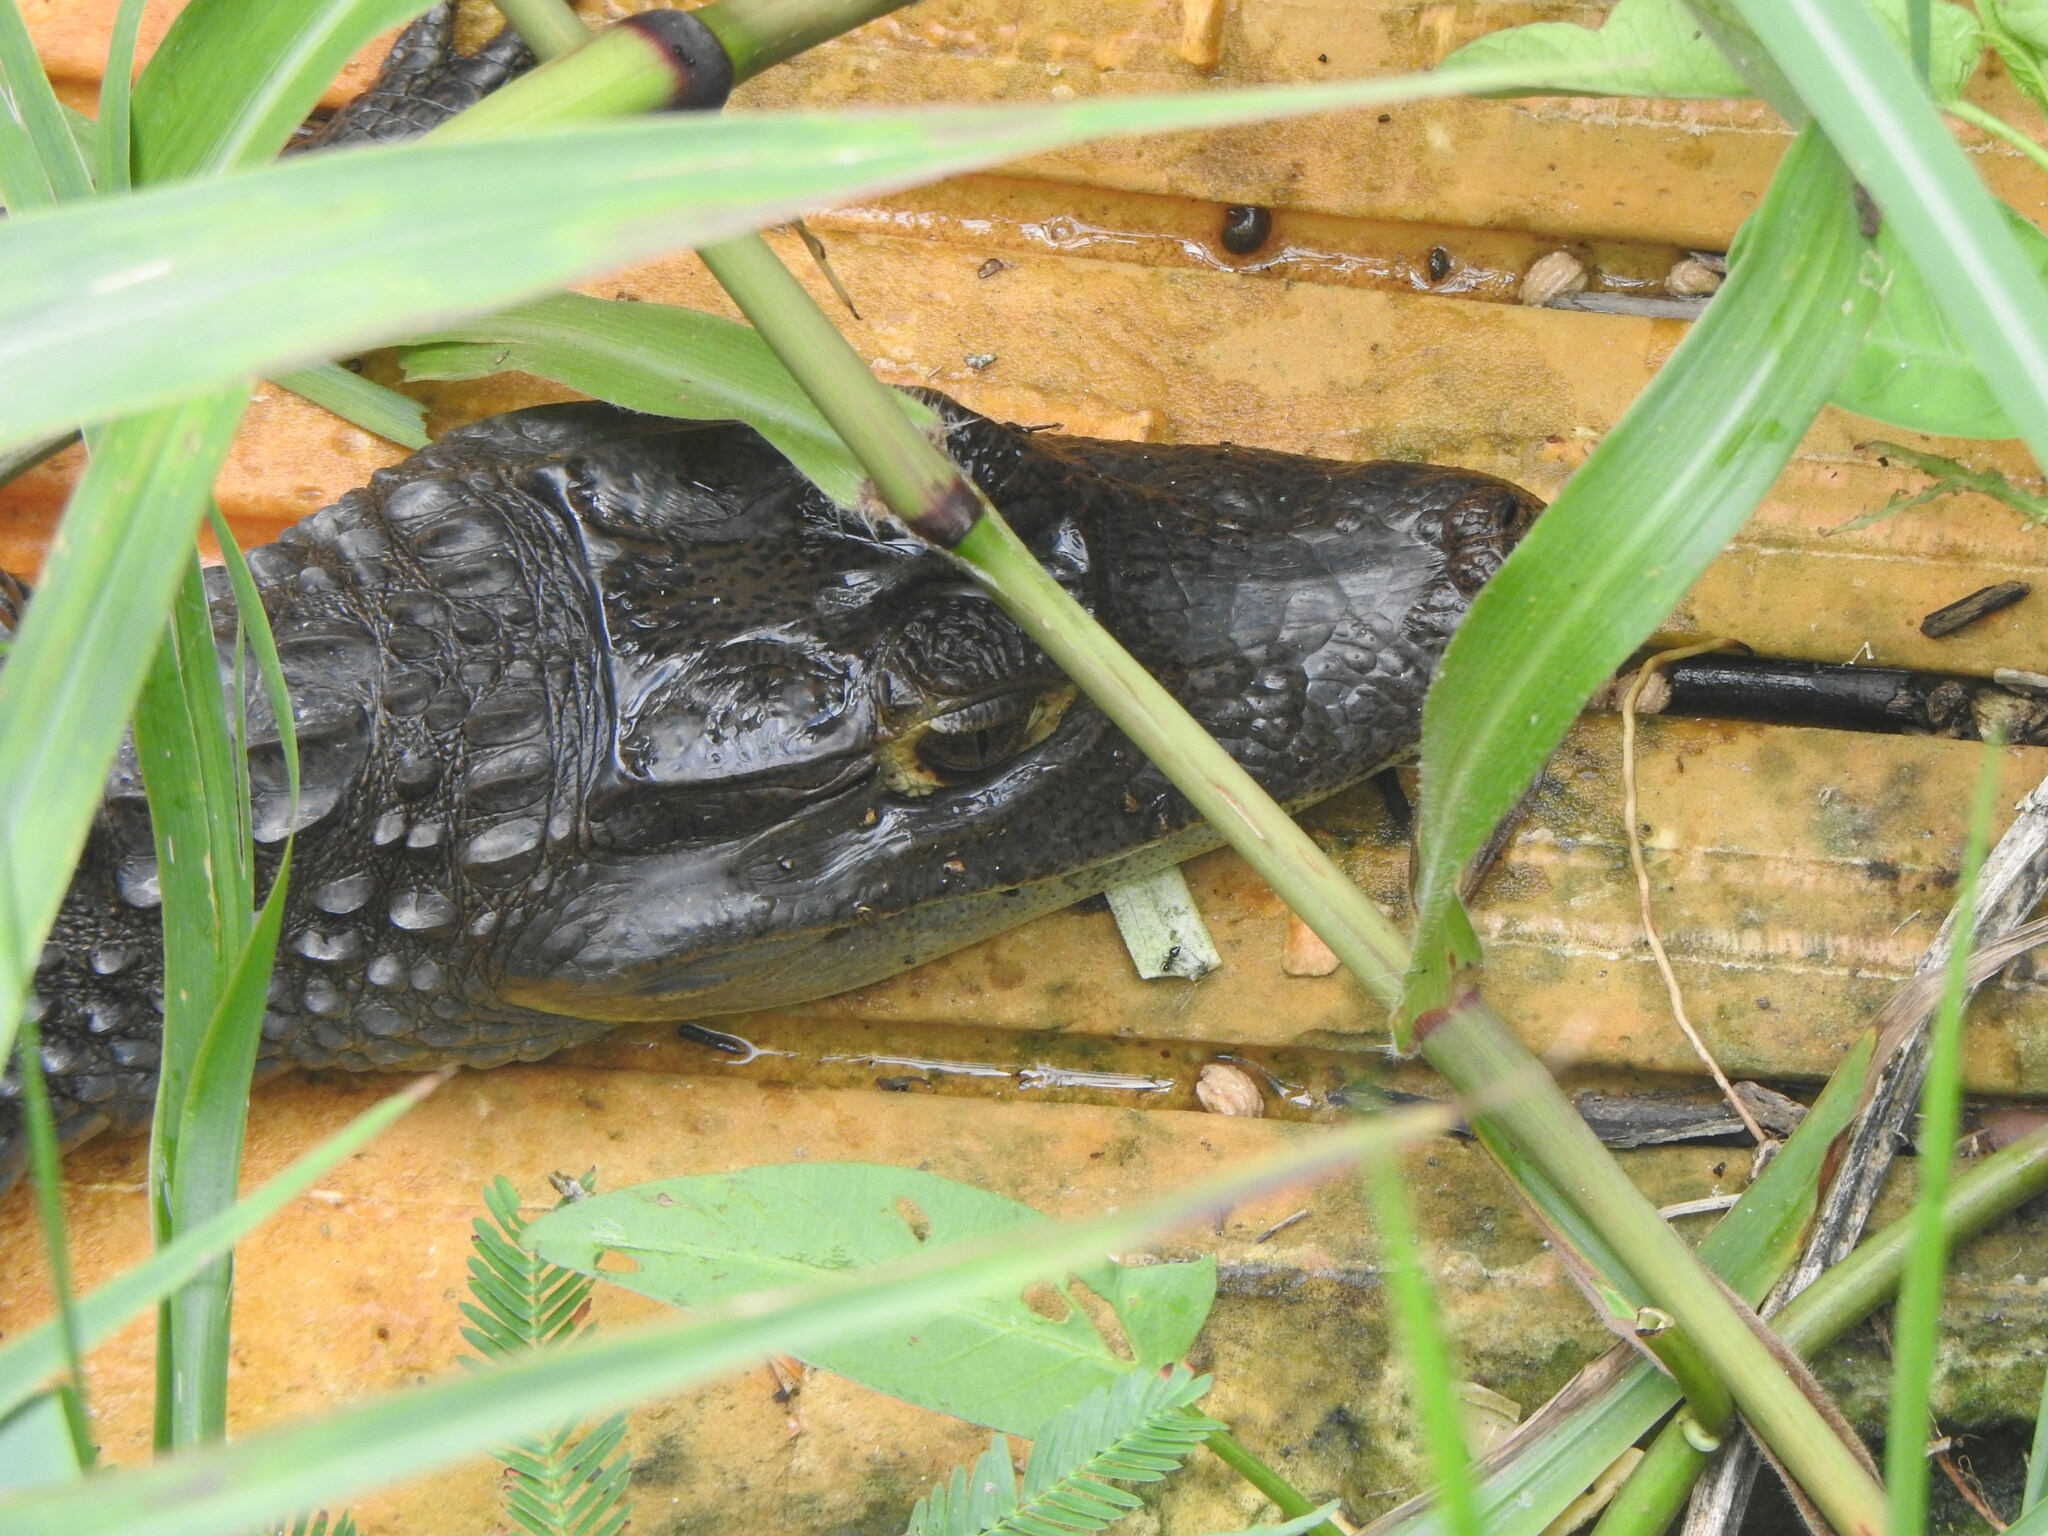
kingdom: Animalia
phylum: Chordata
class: Crocodylia
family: Alligatoridae
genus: Caiman
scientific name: Caiman crocodilus
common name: Common caiman
